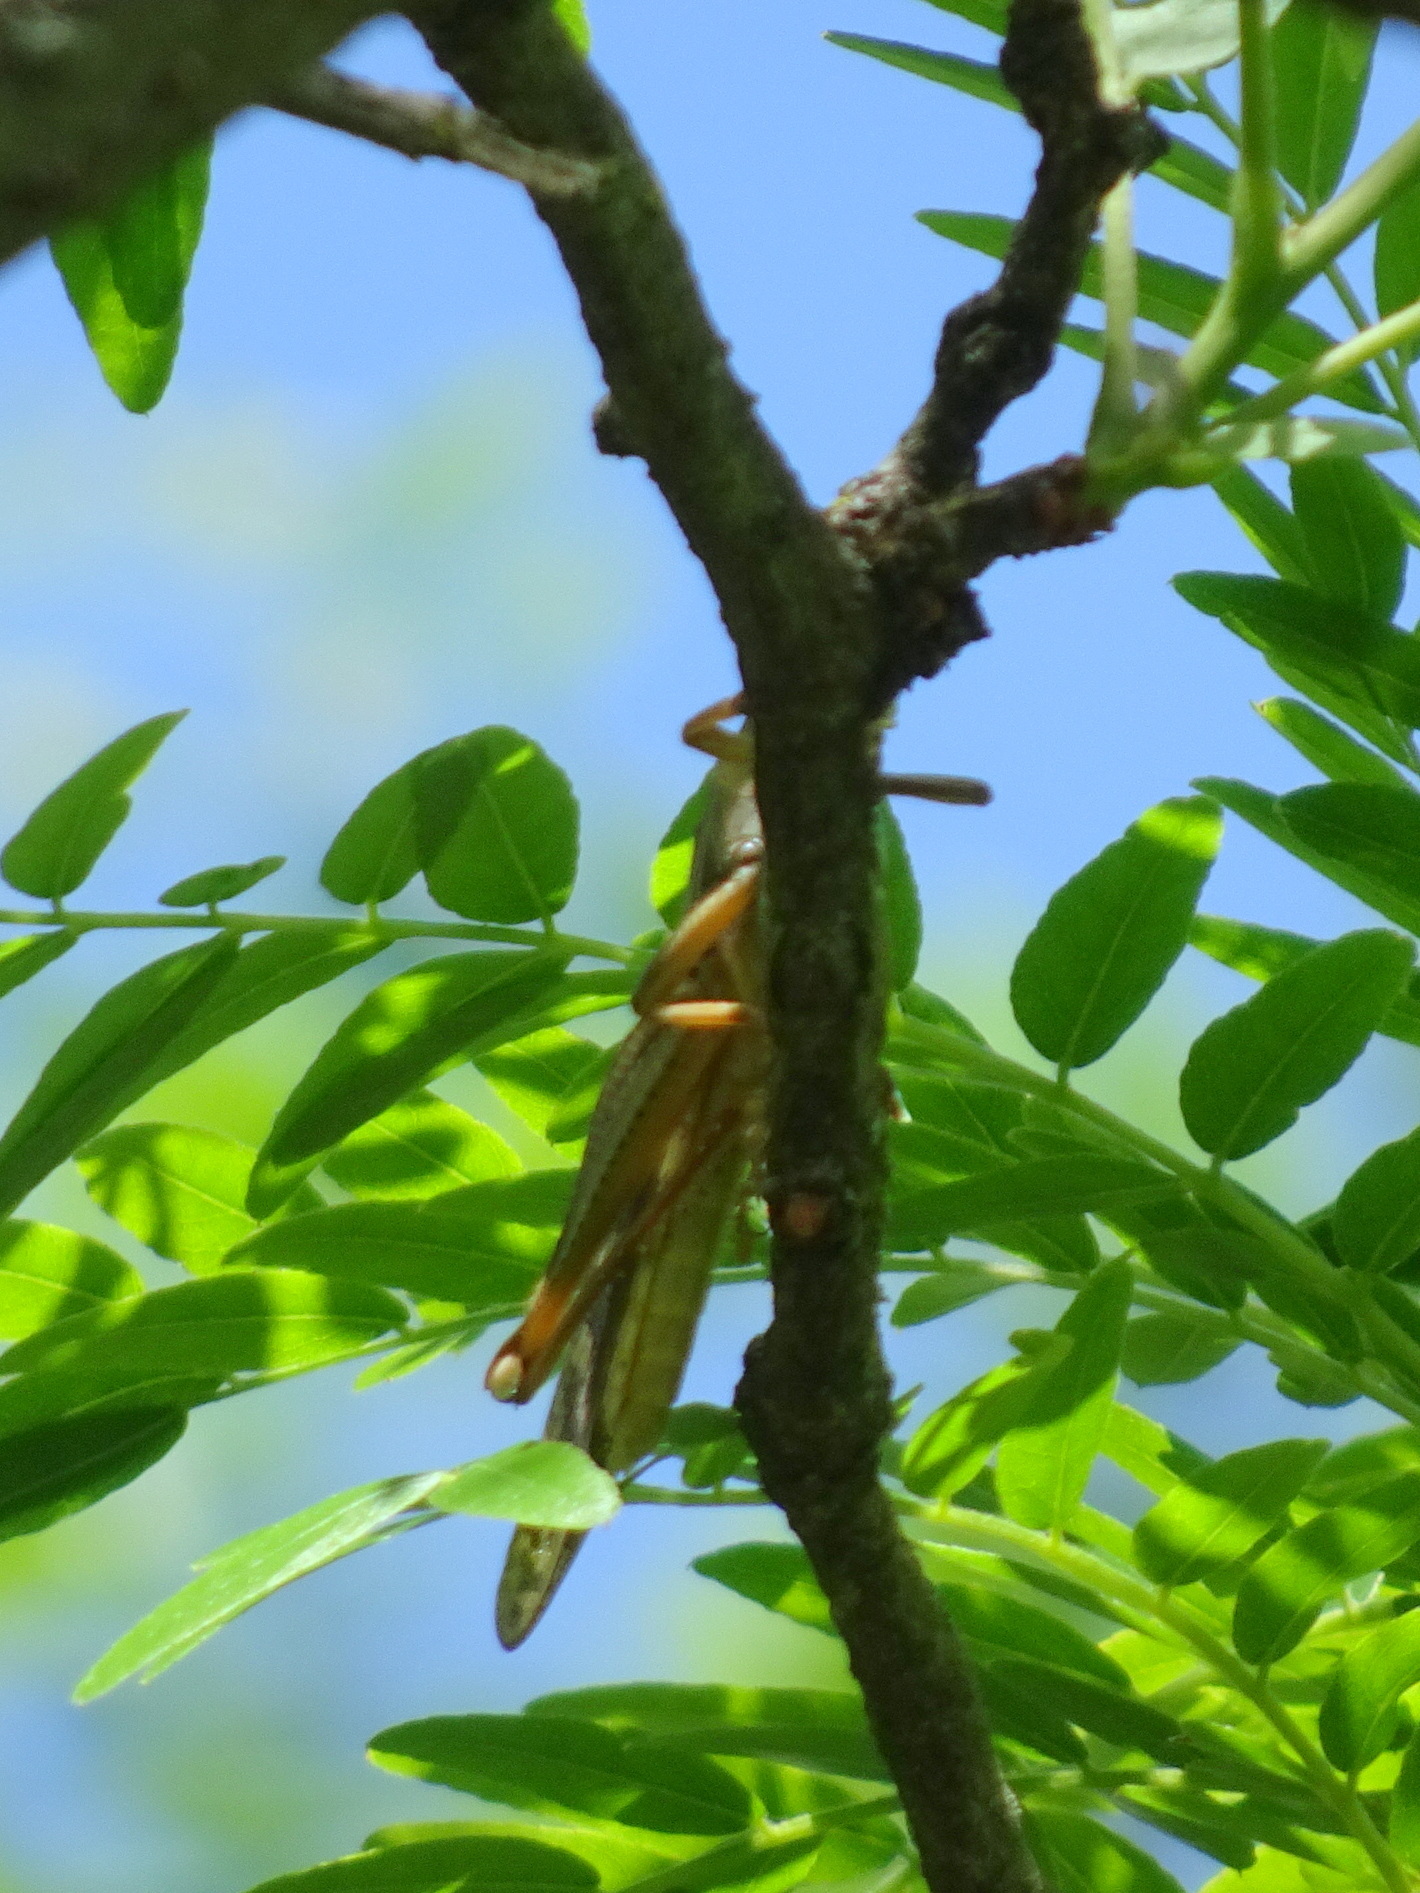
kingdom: Animalia
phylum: Arthropoda
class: Insecta
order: Orthoptera
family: Acrididae
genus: Schistocerca
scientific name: Schistocerca americana
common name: American bird locust
